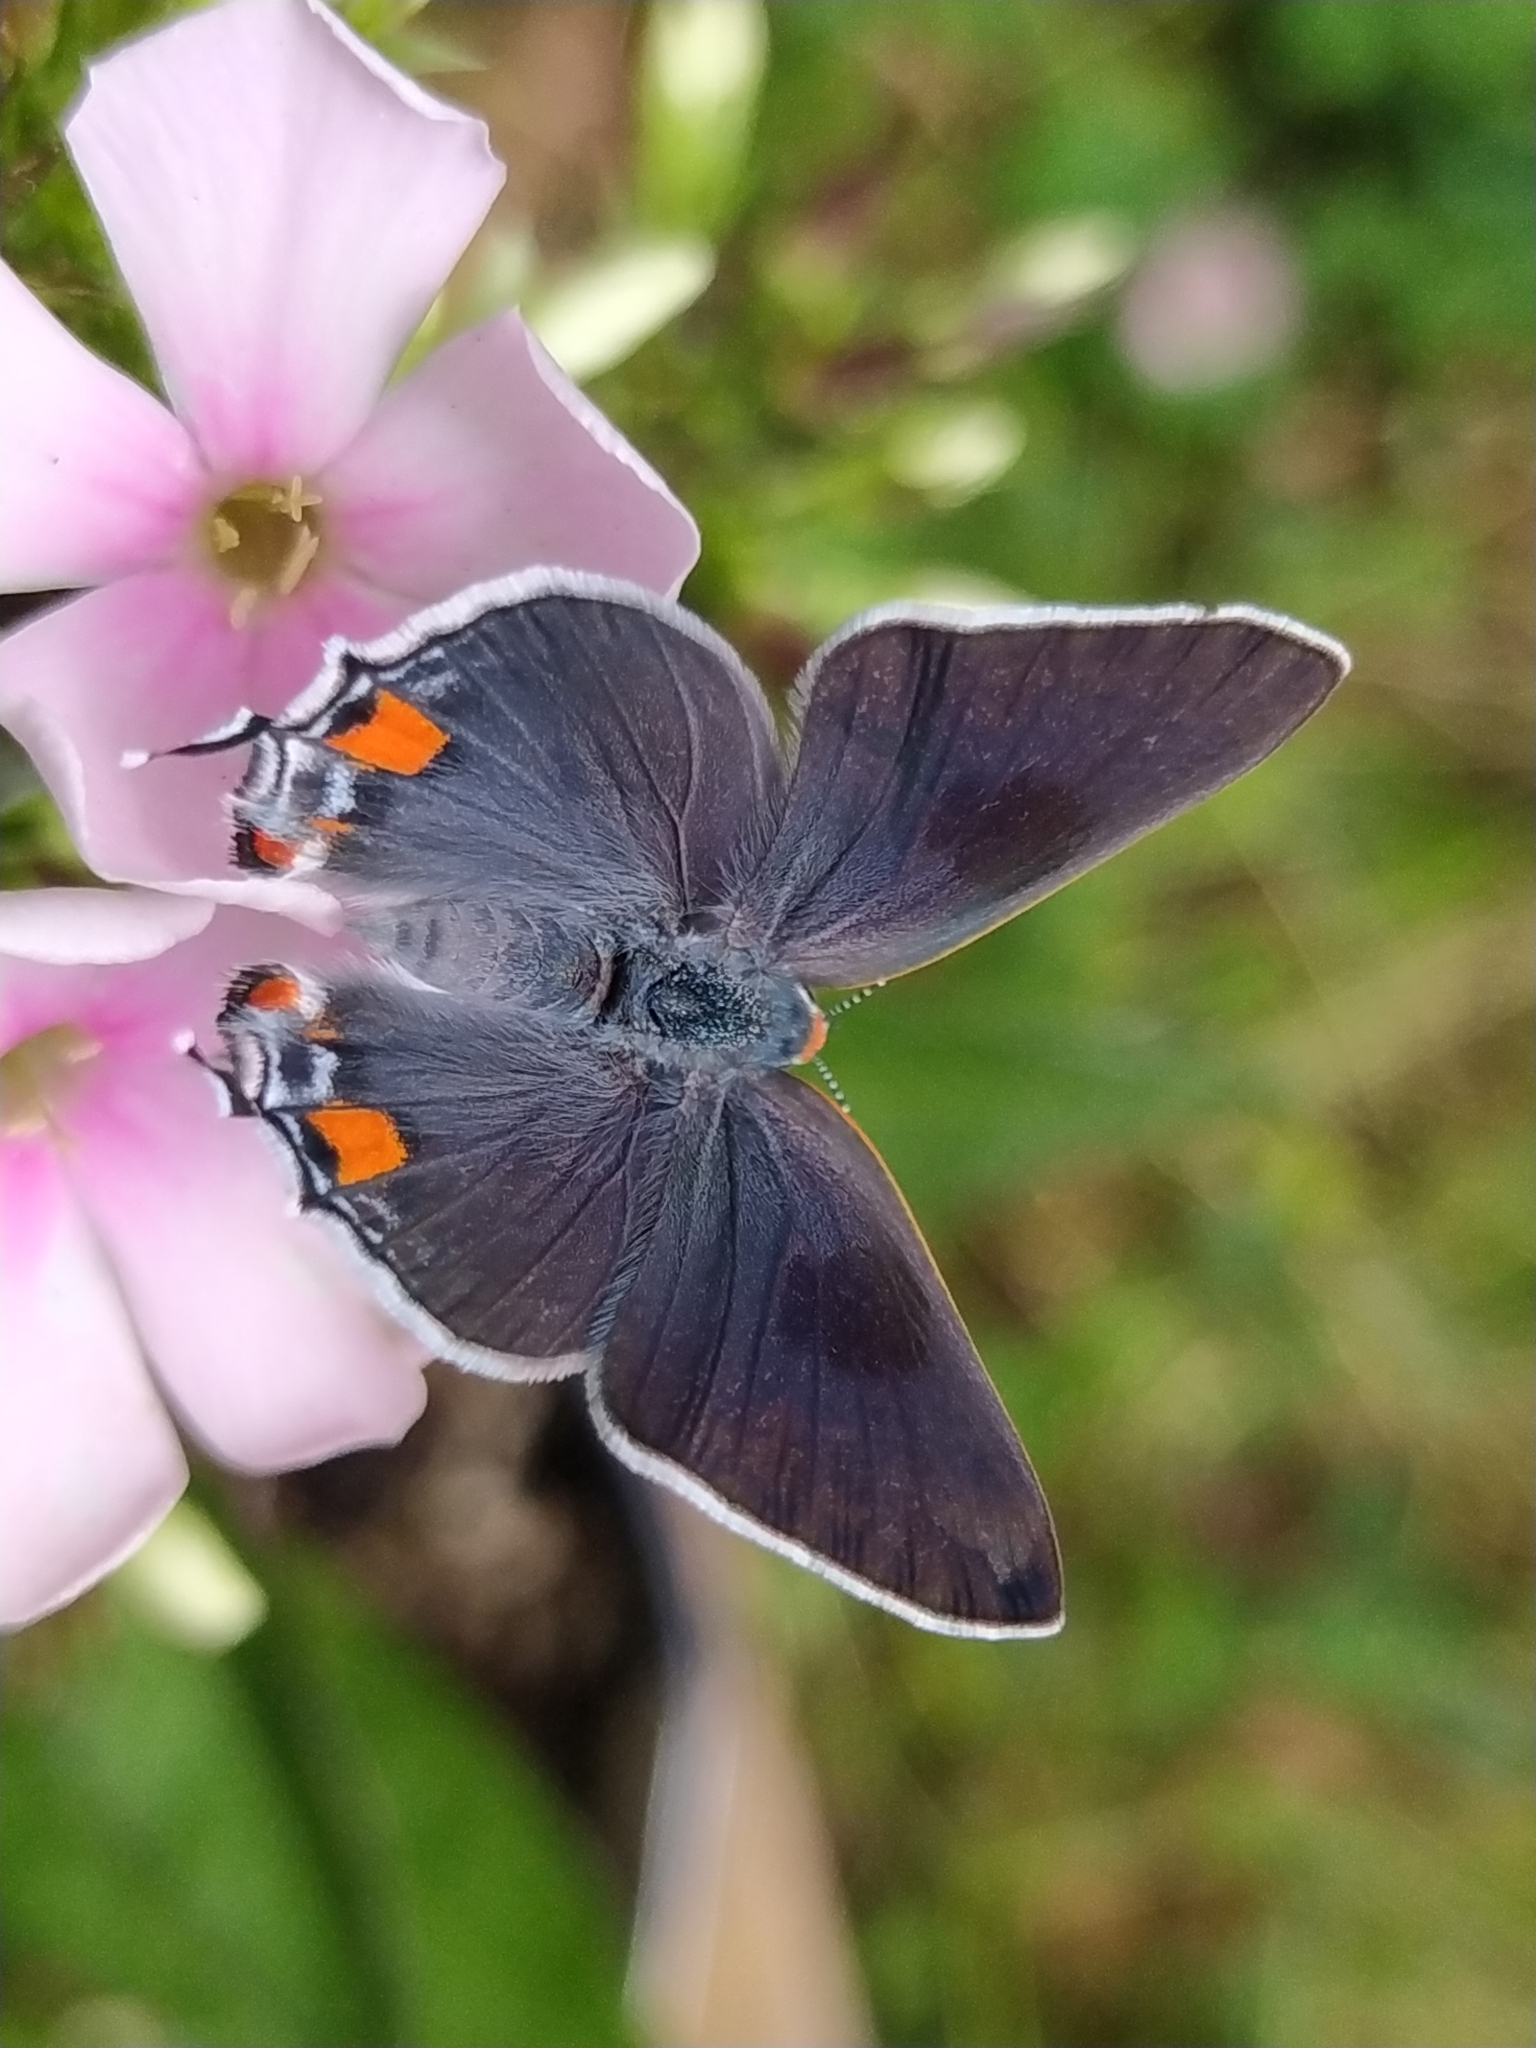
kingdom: Animalia
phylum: Arthropoda
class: Insecta
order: Lepidoptera
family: Lycaenidae
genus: Strymon
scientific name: Strymon melinus
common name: Gray hairstreak
